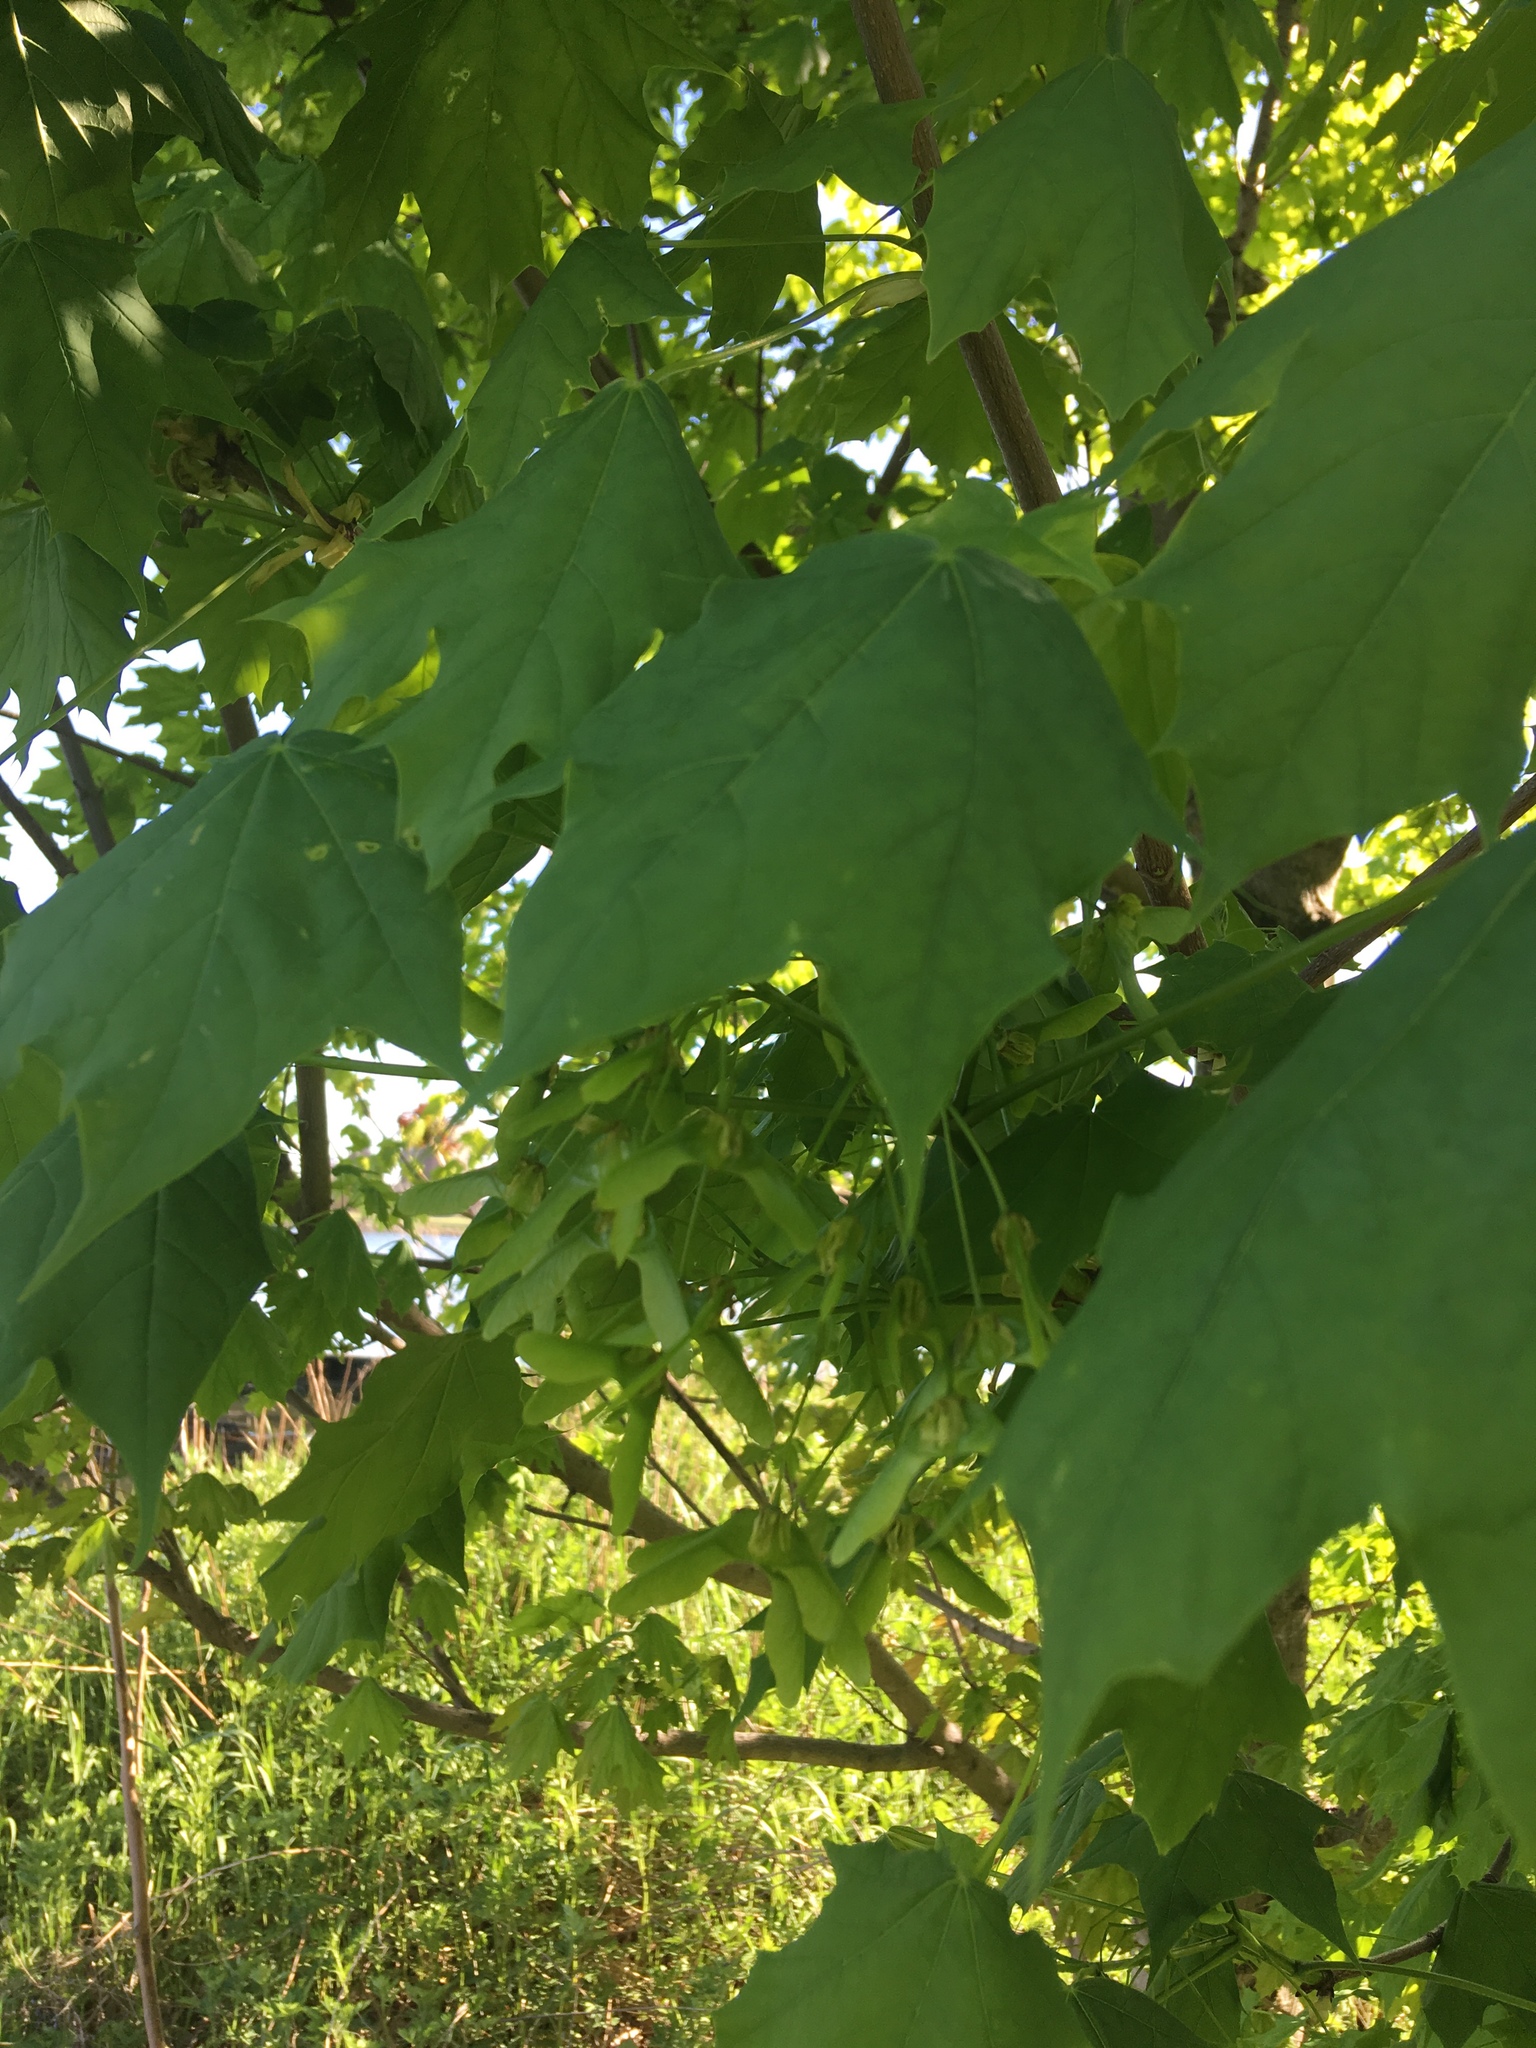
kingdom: Plantae
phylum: Tracheophyta
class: Magnoliopsida
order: Sapindales
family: Sapindaceae
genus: Acer
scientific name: Acer platanoides
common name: Norway maple
